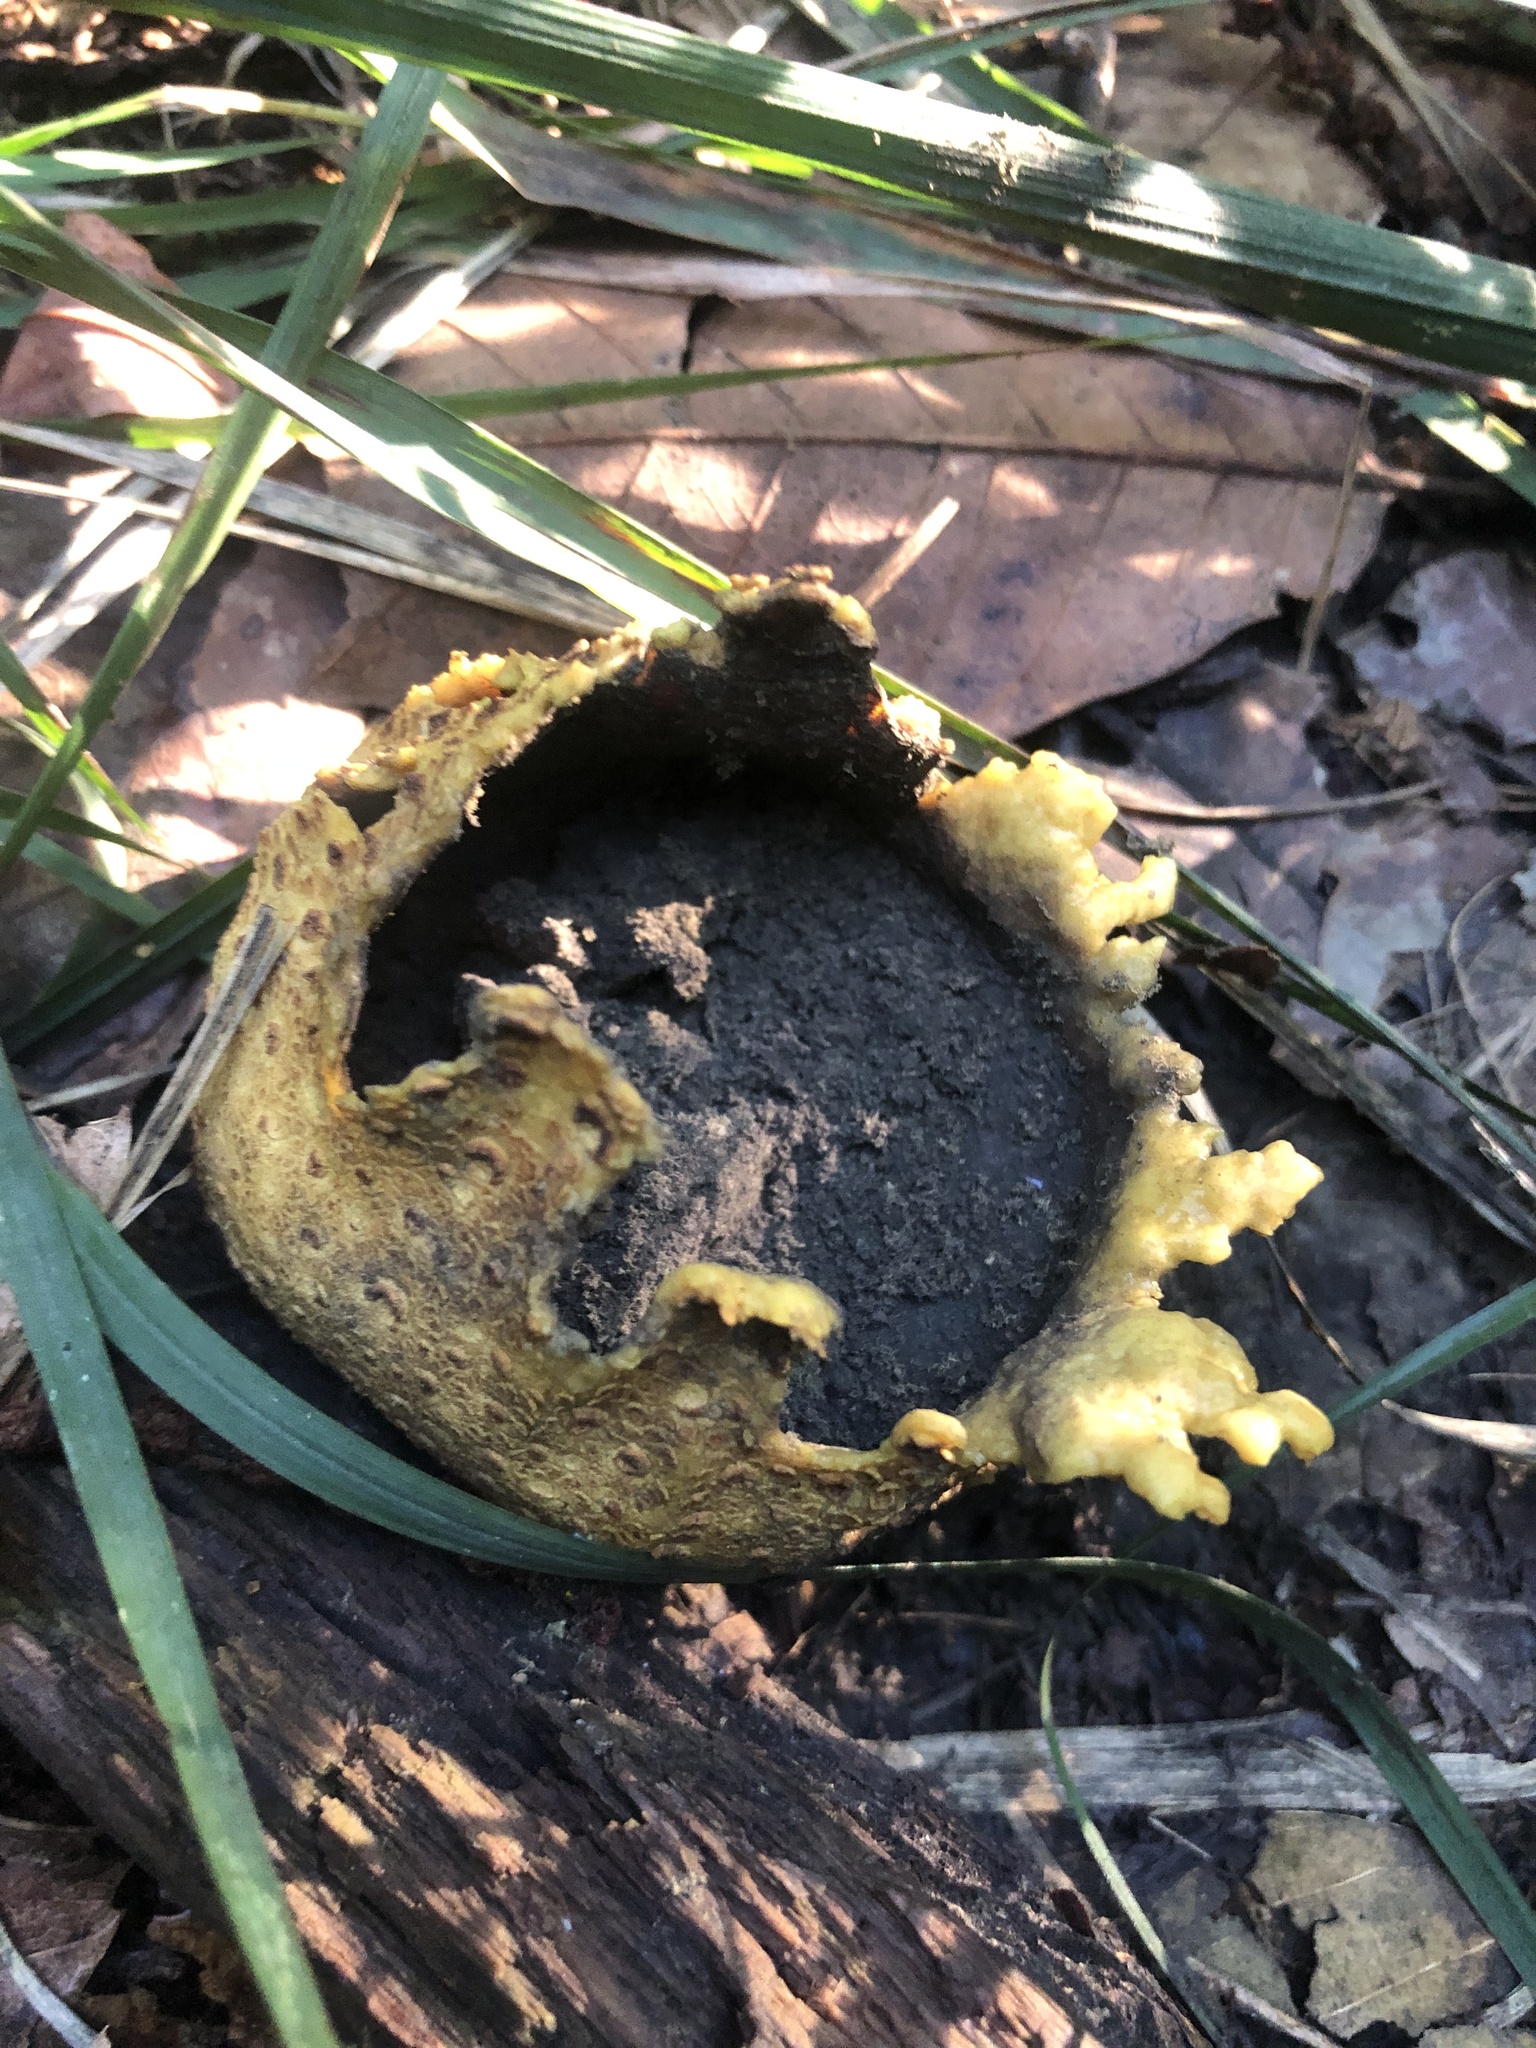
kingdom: Fungi
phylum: Basidiomycota
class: Agaricomycetes
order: Boletales
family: Sclerodermataceae
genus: Scleroderma
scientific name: Scleroderma citrinum
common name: Common earthball
